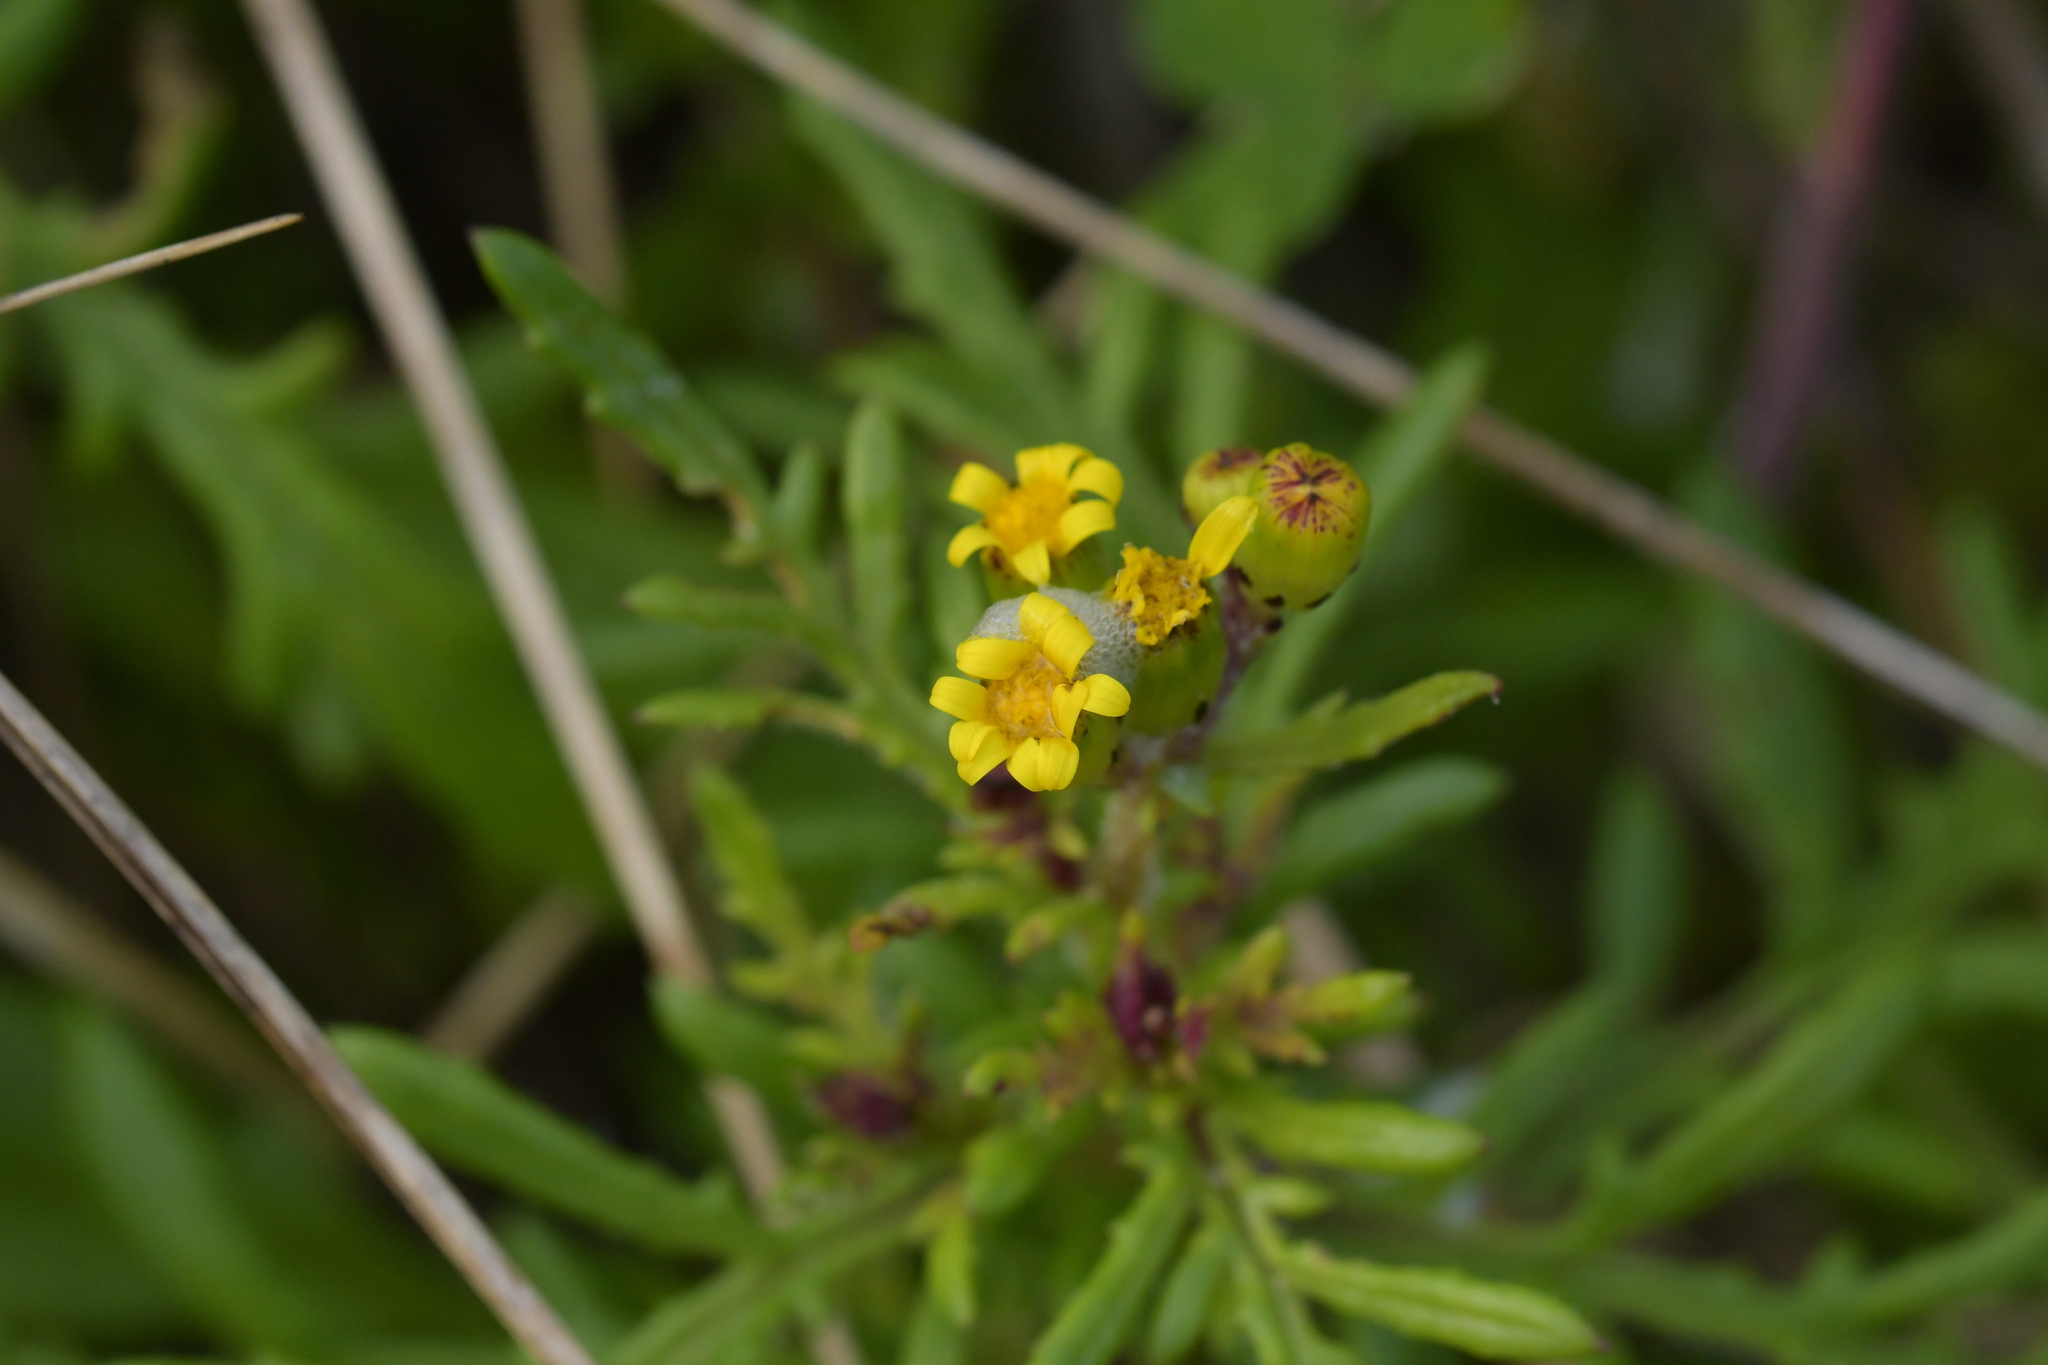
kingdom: Plantae
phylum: Tracheophyta
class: Magnoliopsida
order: Asterales
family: Asteraceae
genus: Senecio
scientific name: Senecio lautus
